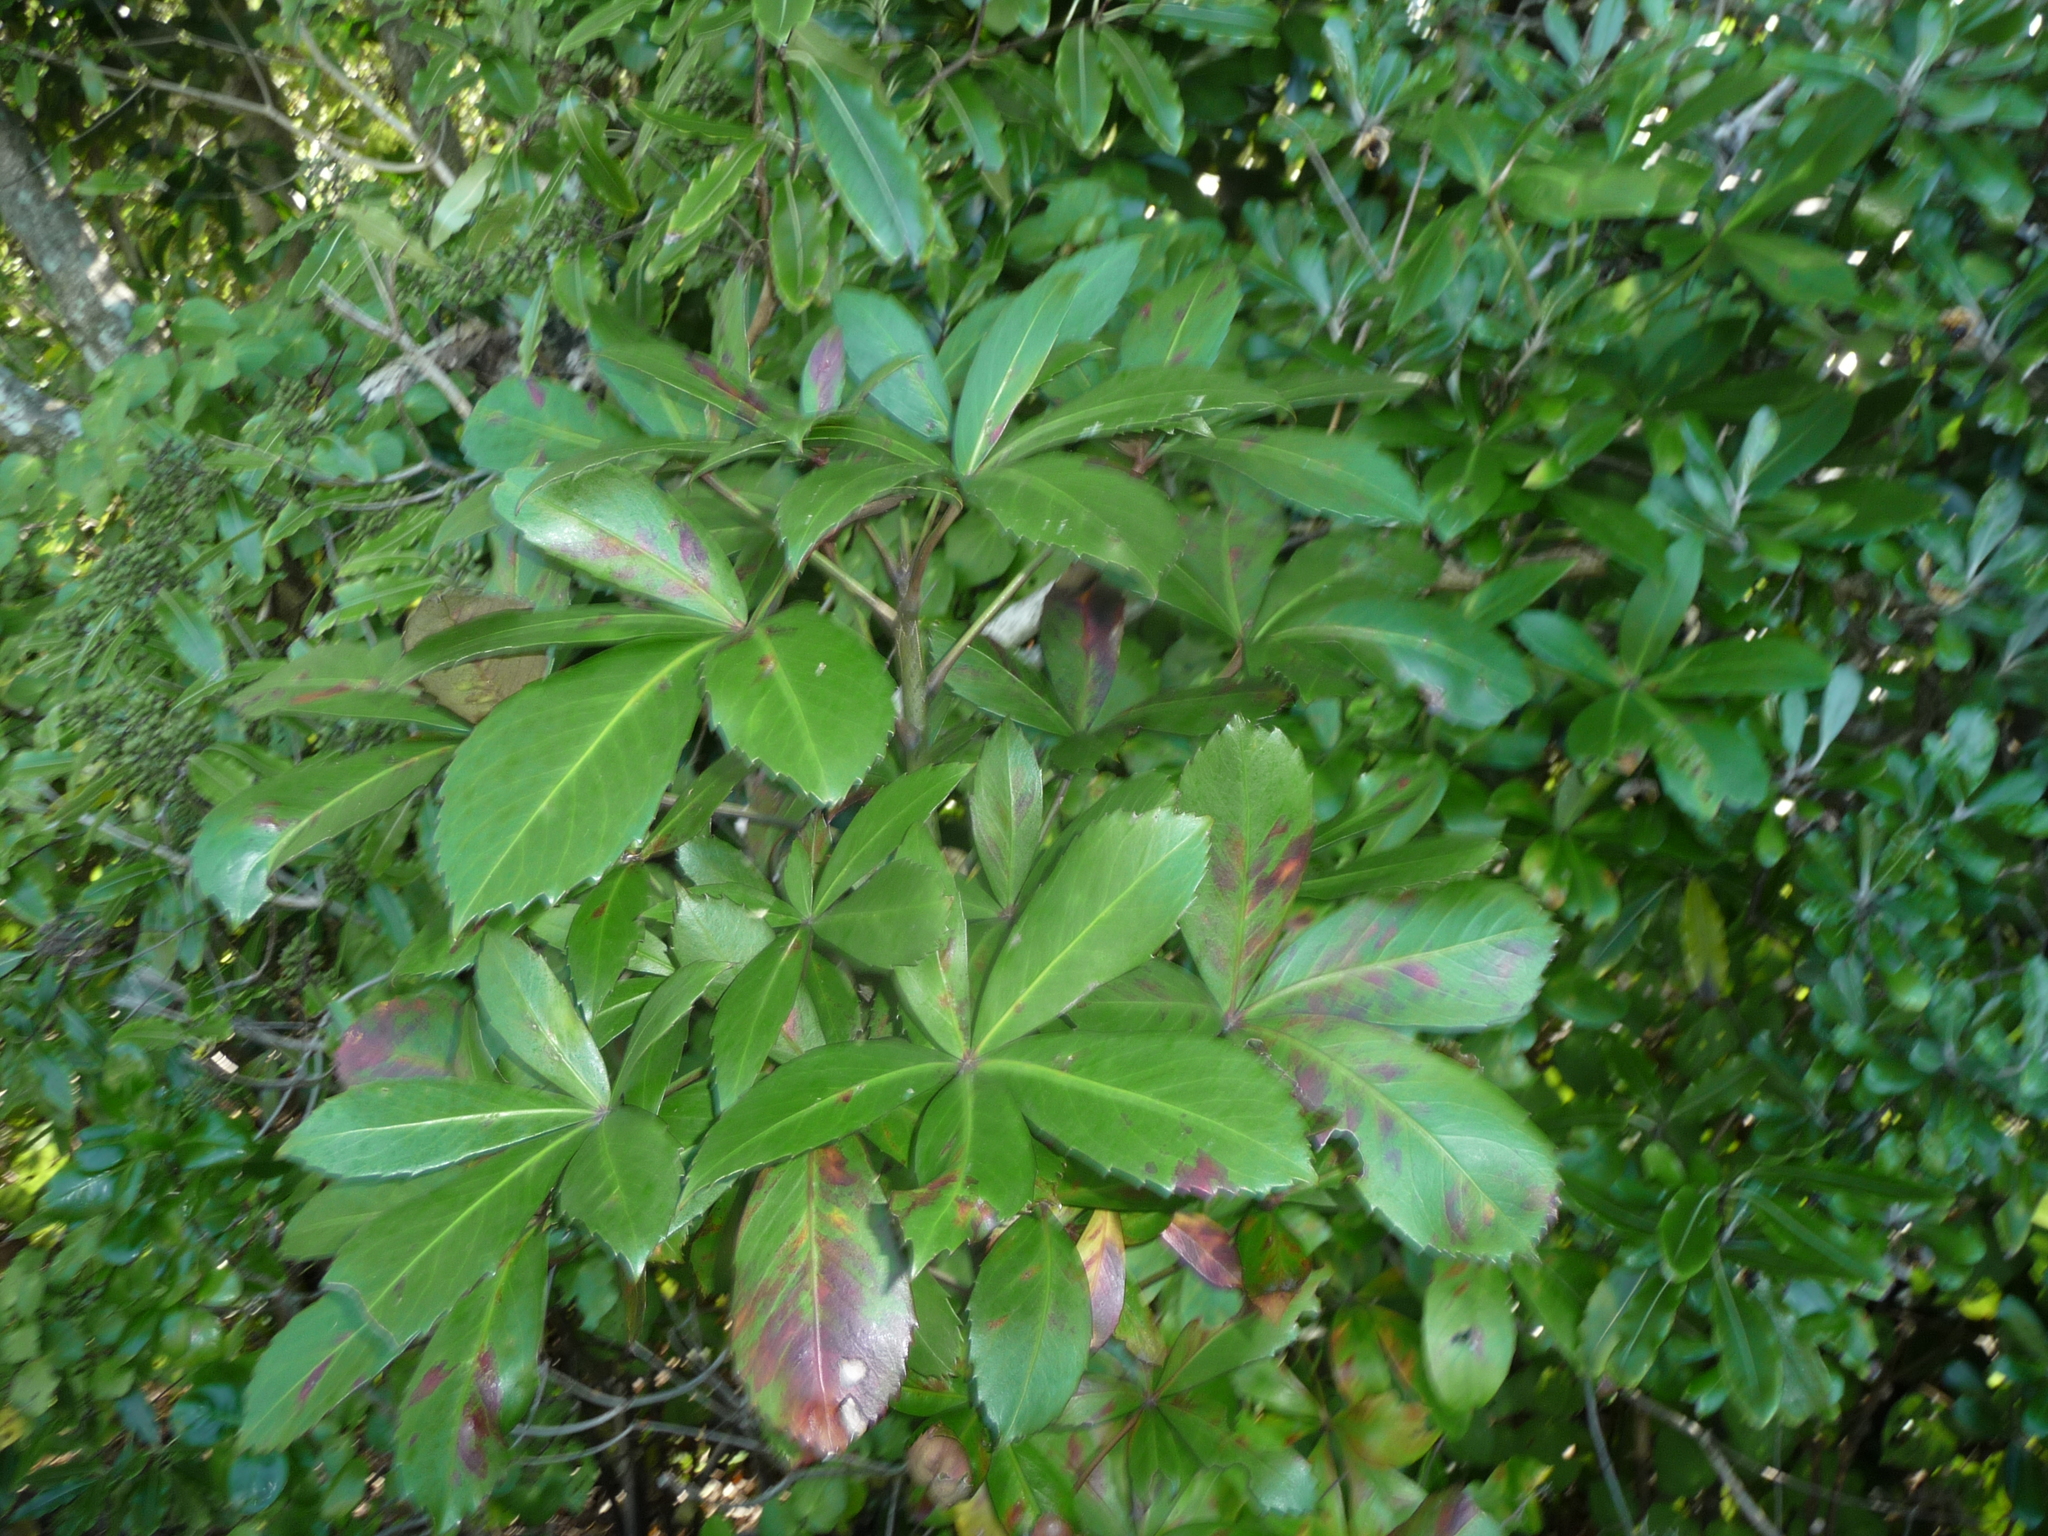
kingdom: Plantae
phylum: Tracheophyta
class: Magnoliopsida
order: Apiales
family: Araliaceae
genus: Pseudopanax
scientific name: Pseudopanax lessonii
